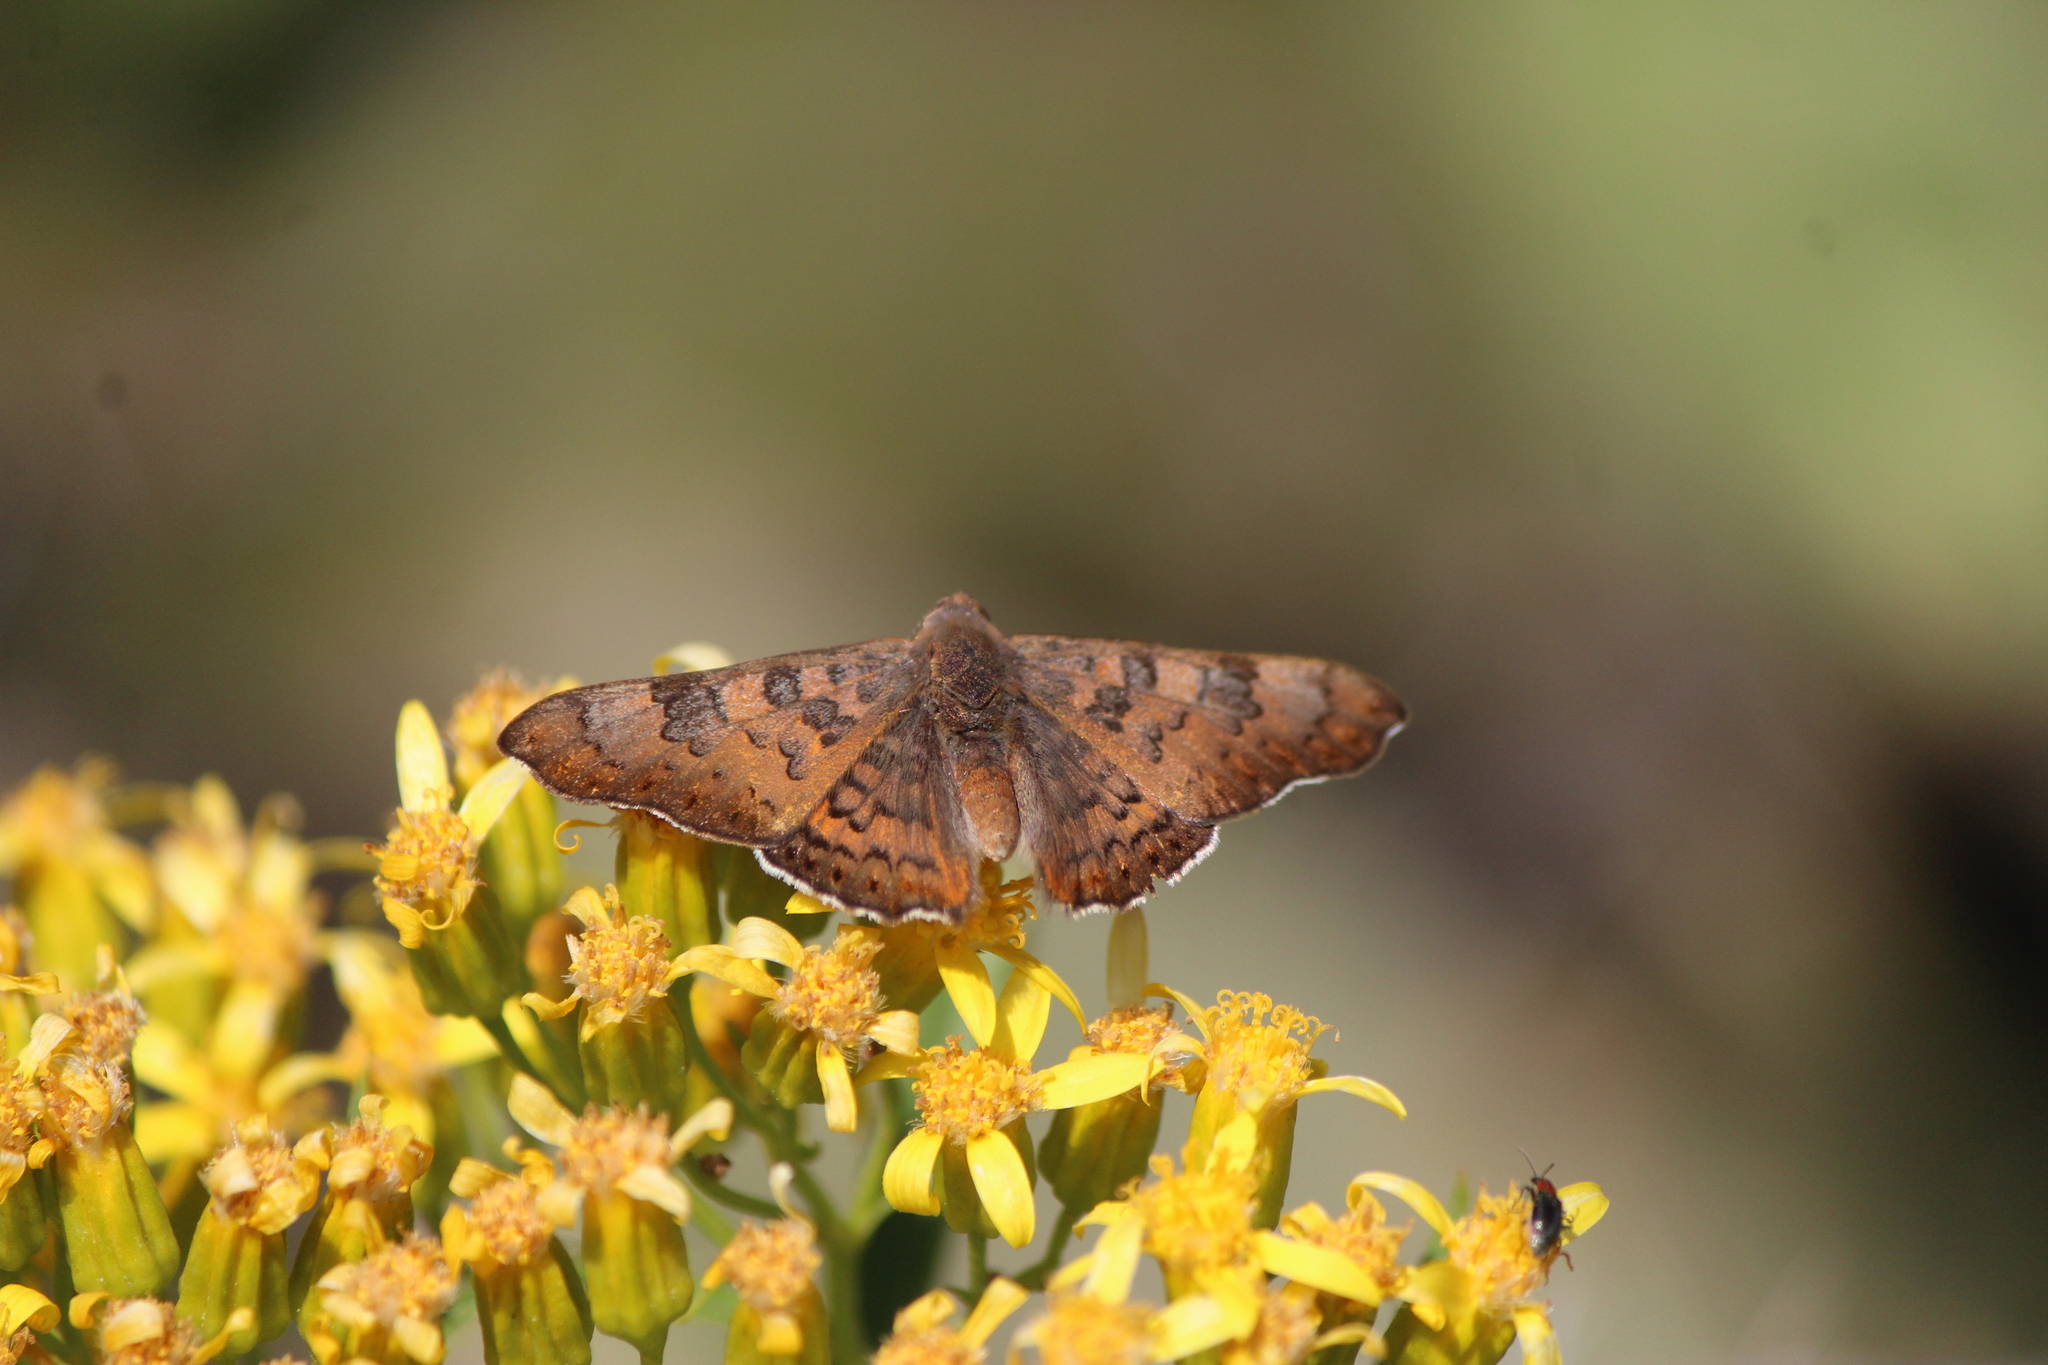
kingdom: Animalia
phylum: Arthropoda
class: Insecta
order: Lepidoptera
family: Riodinidae
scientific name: Riodinidae
